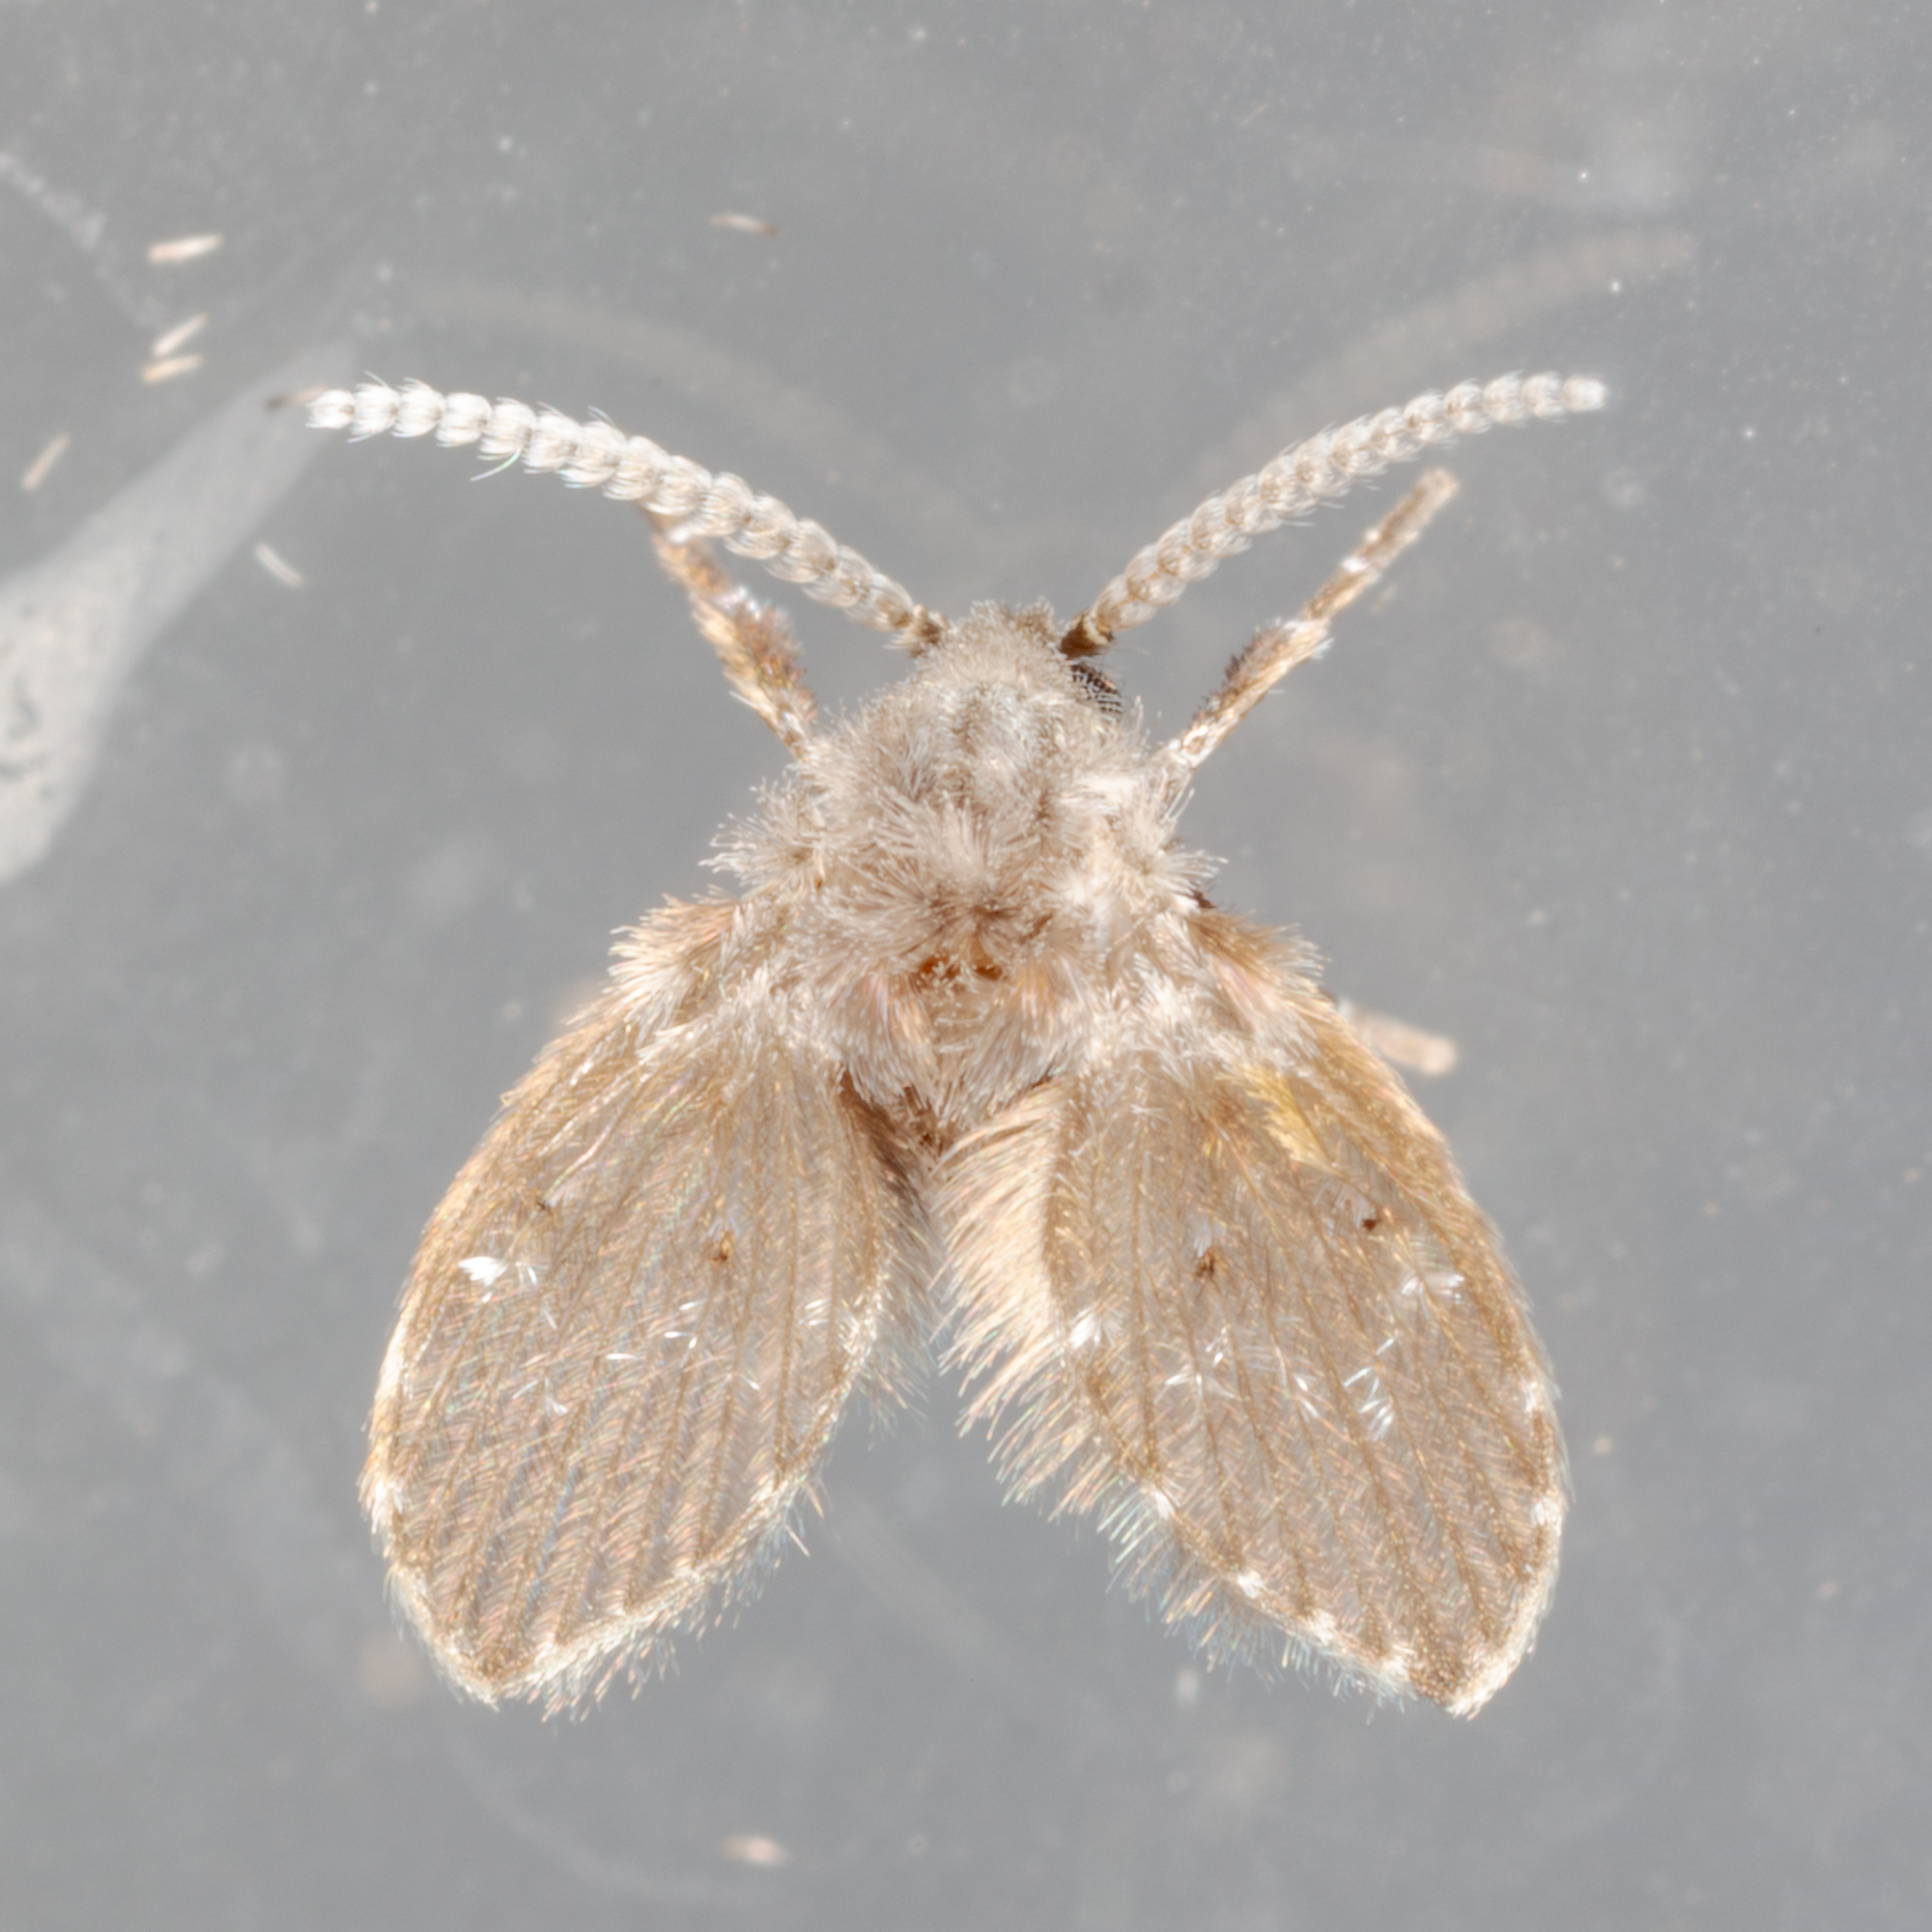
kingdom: Animalia
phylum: Arthropoda
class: Insecta
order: Diptera
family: Psychodidae
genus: Clogmia
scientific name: Clogmia albipunctatus
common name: White-spotted moth fly
